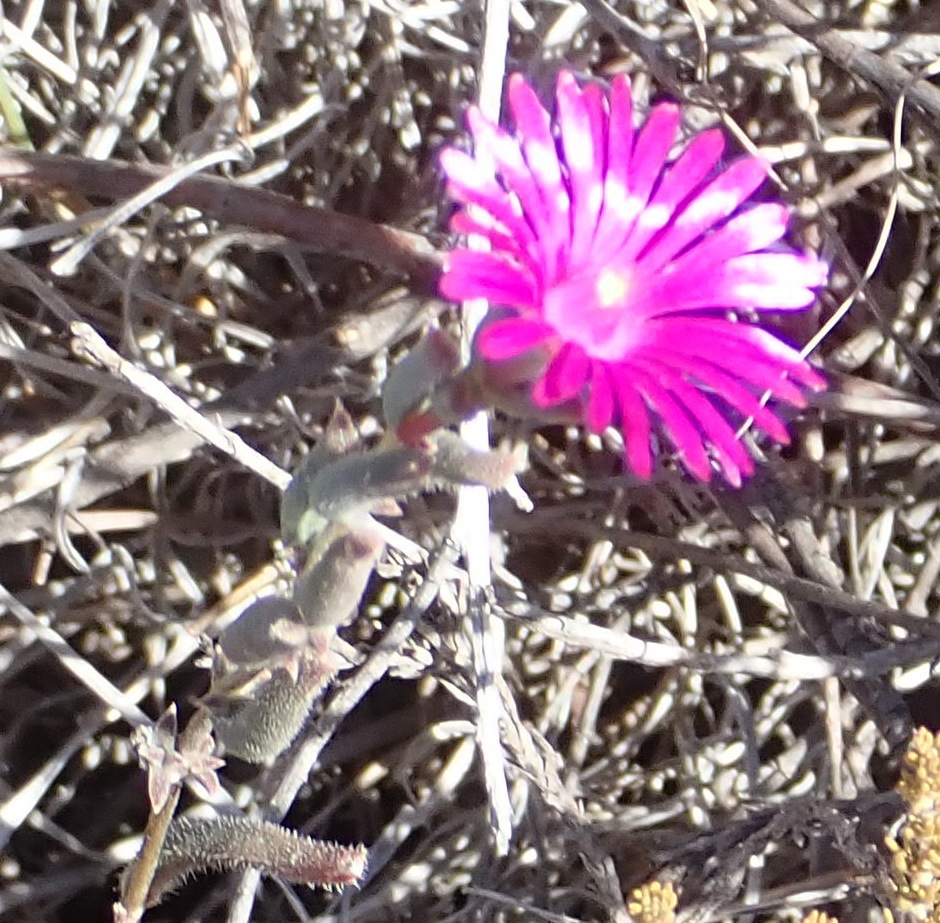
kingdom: Plantae
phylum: Tracheophyta
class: Magnoliopsida
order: Caryophyllales
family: Aizoaceae
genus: Delosperma
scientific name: Delosperma neethlingiae
